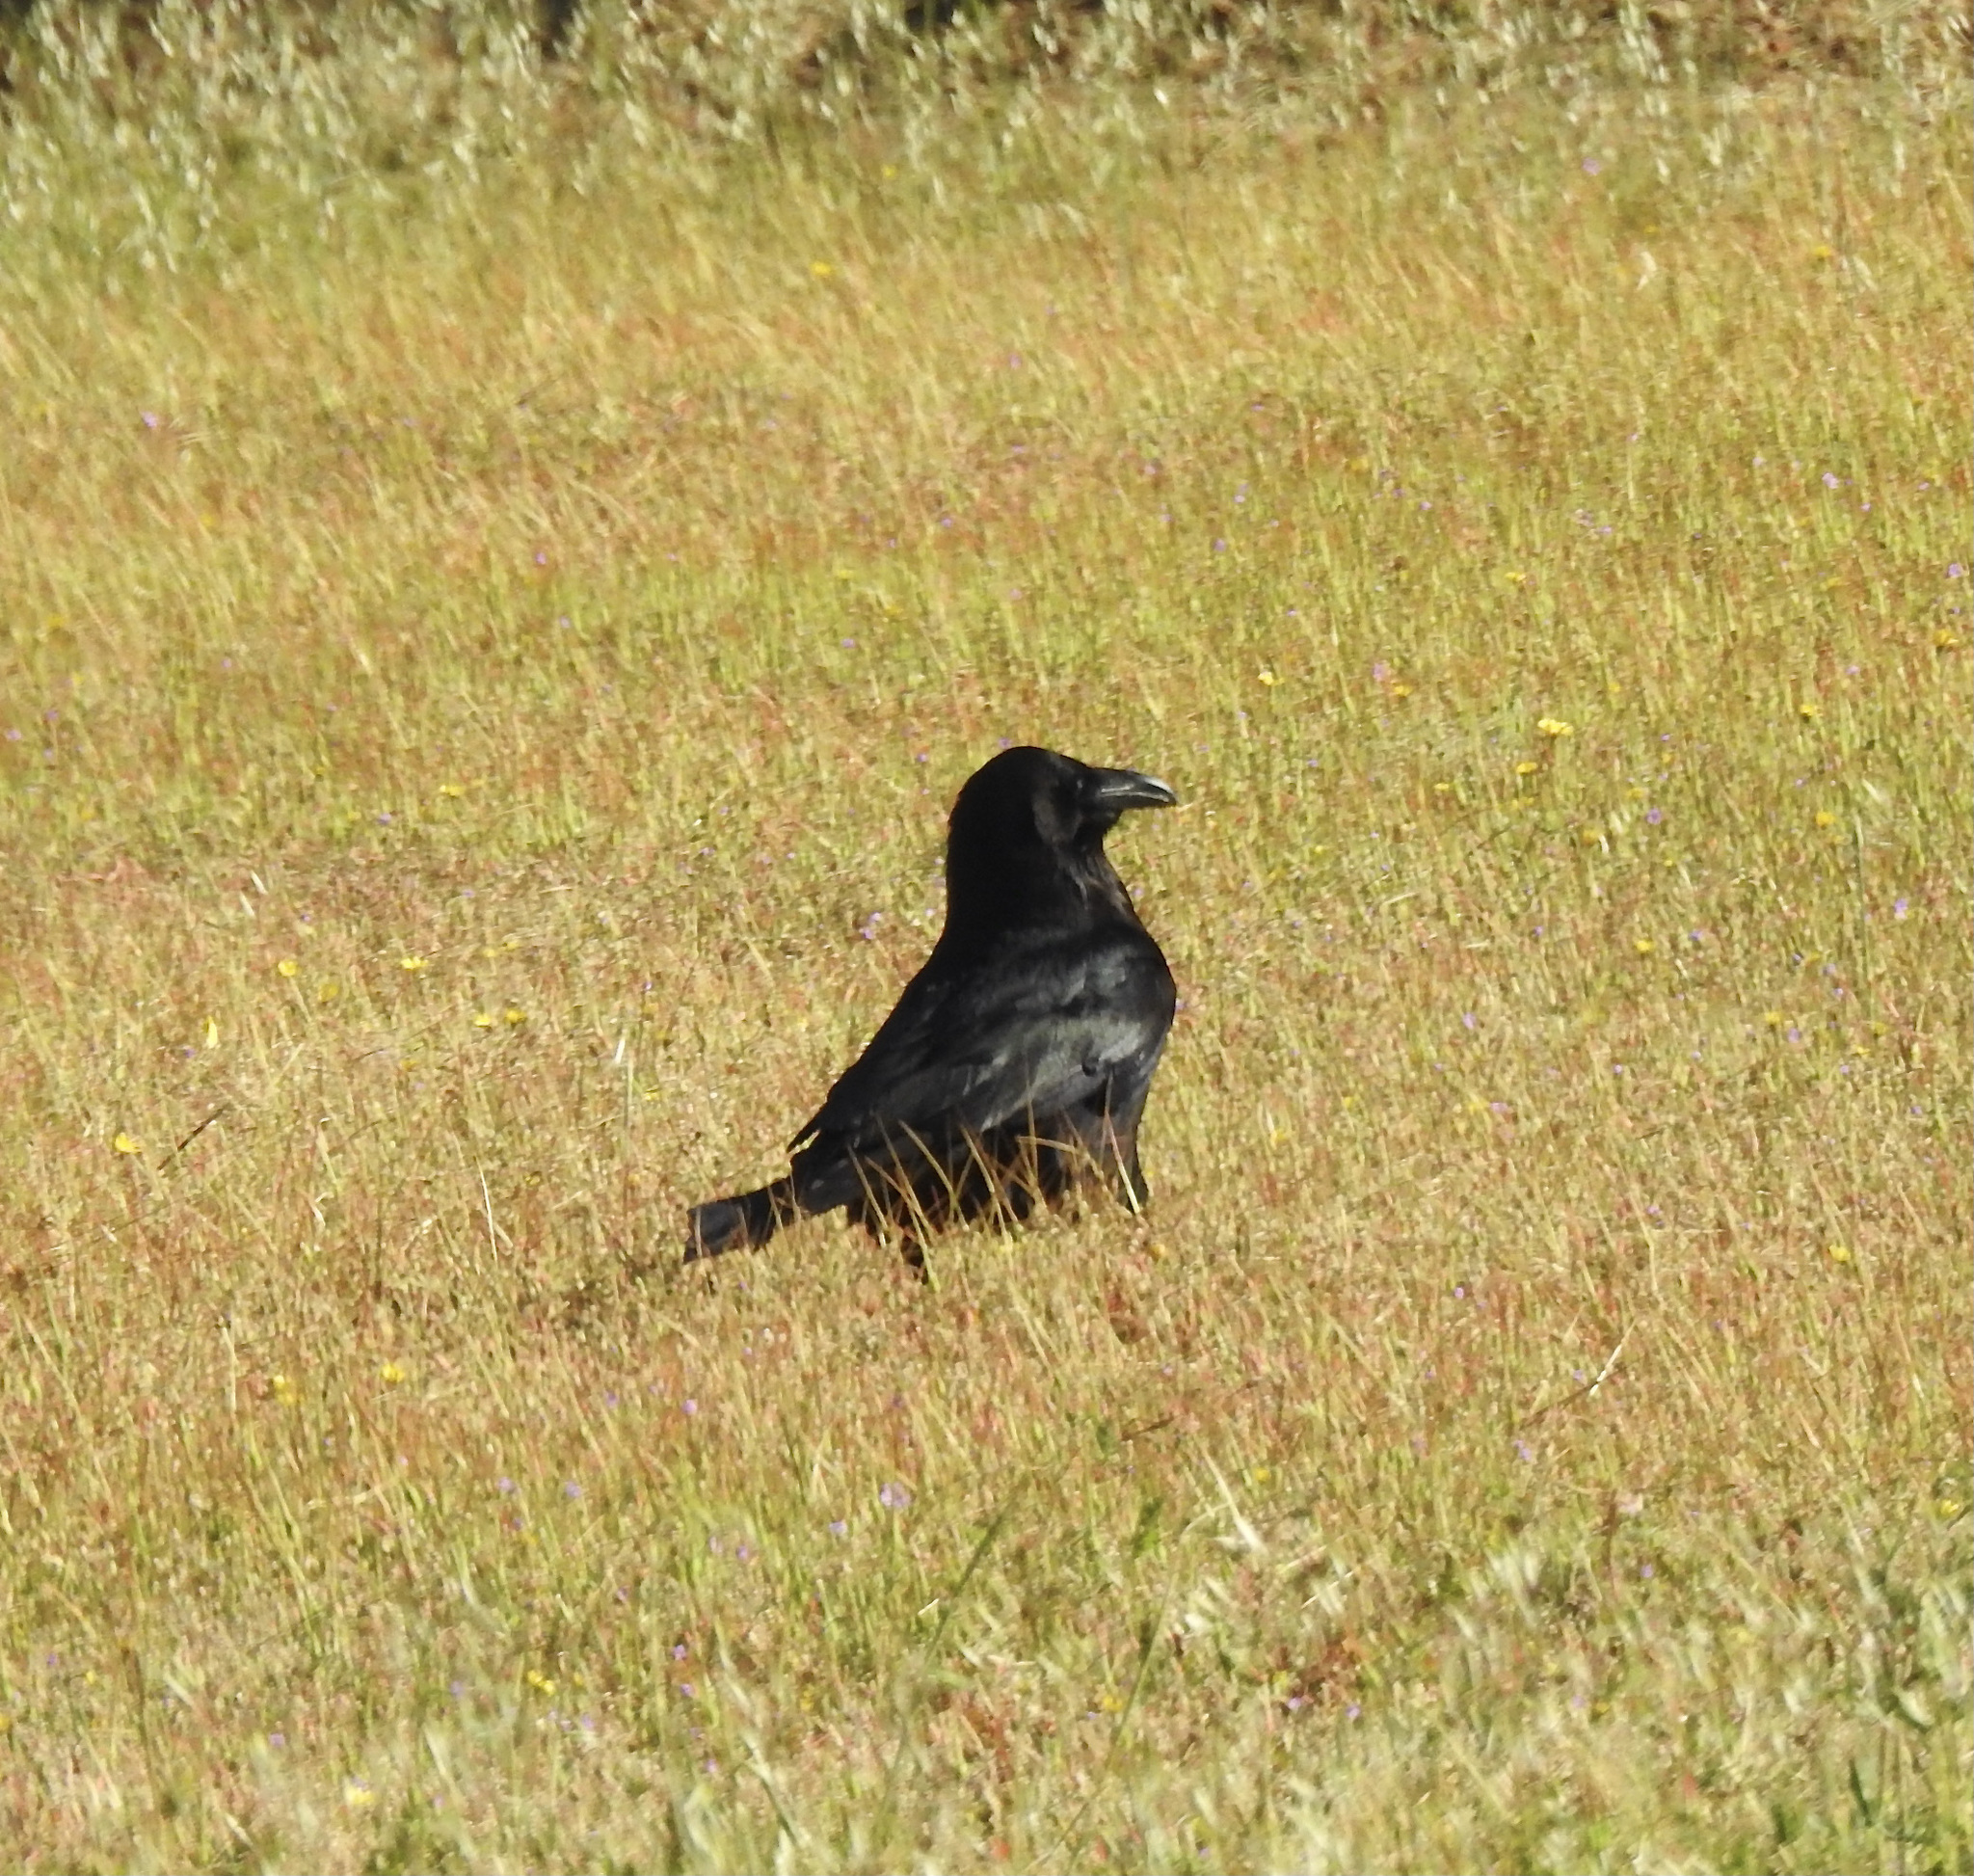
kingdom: Animalia
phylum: Chordata
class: Aves
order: Passeriformes
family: Corvidae
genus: Corvus
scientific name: Corvus brachyrhynchos
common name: American crow
